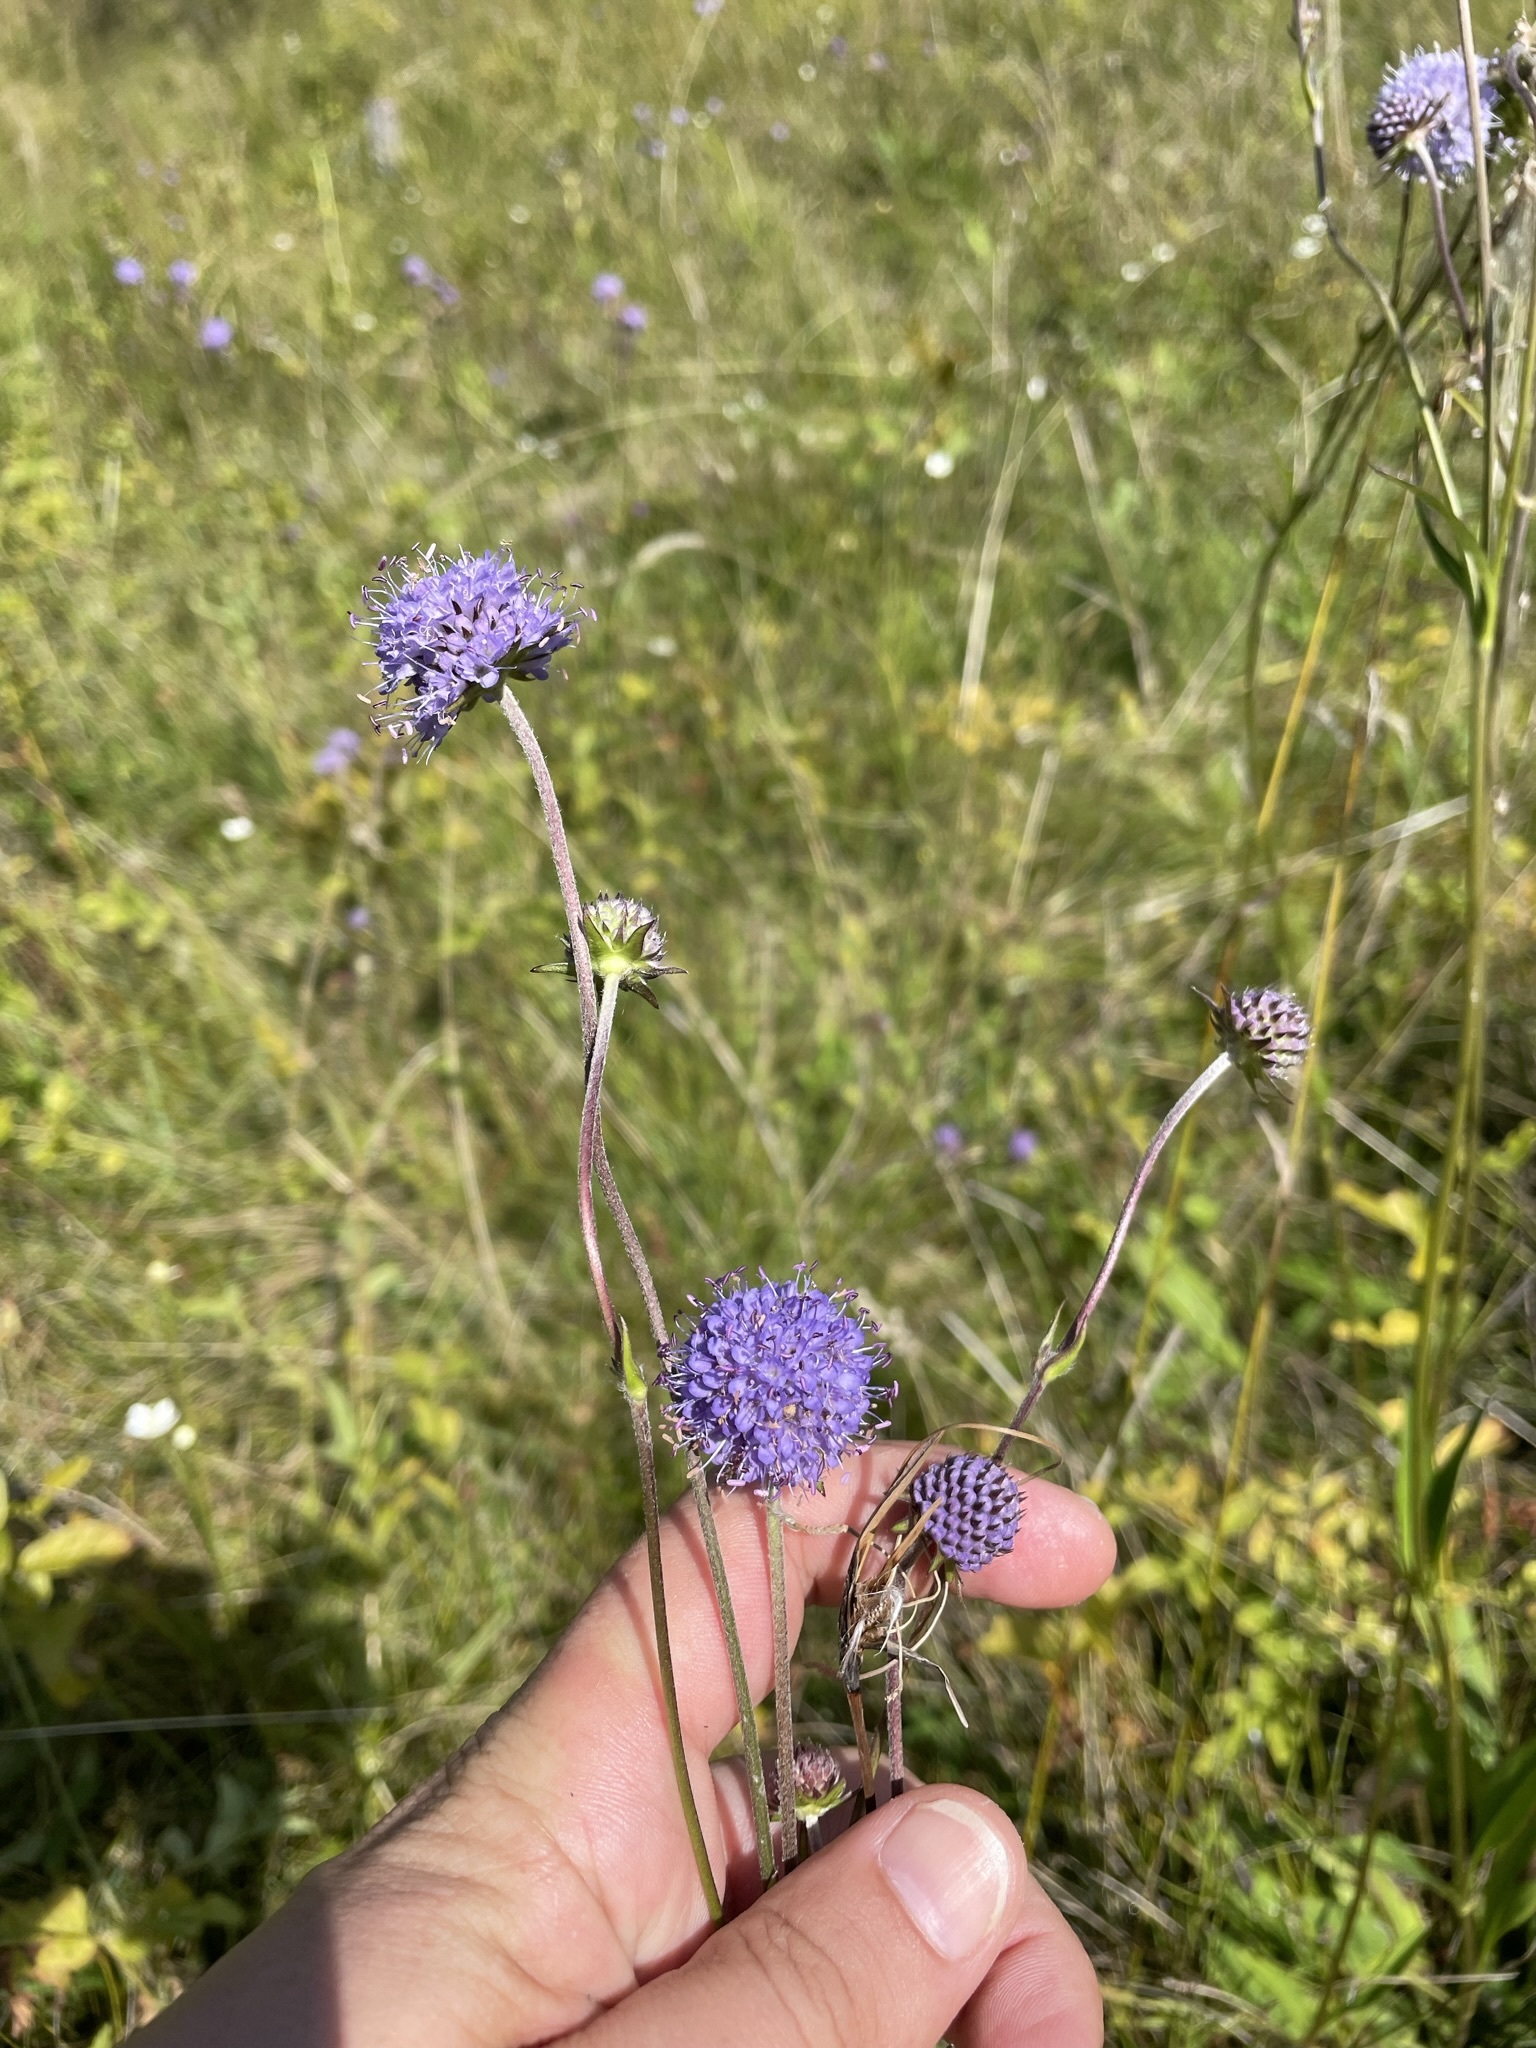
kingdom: Plantae
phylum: Tracheophyta
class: Magnoliopsida
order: Dipsacales
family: Caprifoliaceae
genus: Succisa
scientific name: Succisa pratensis
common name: Devil's-bit
